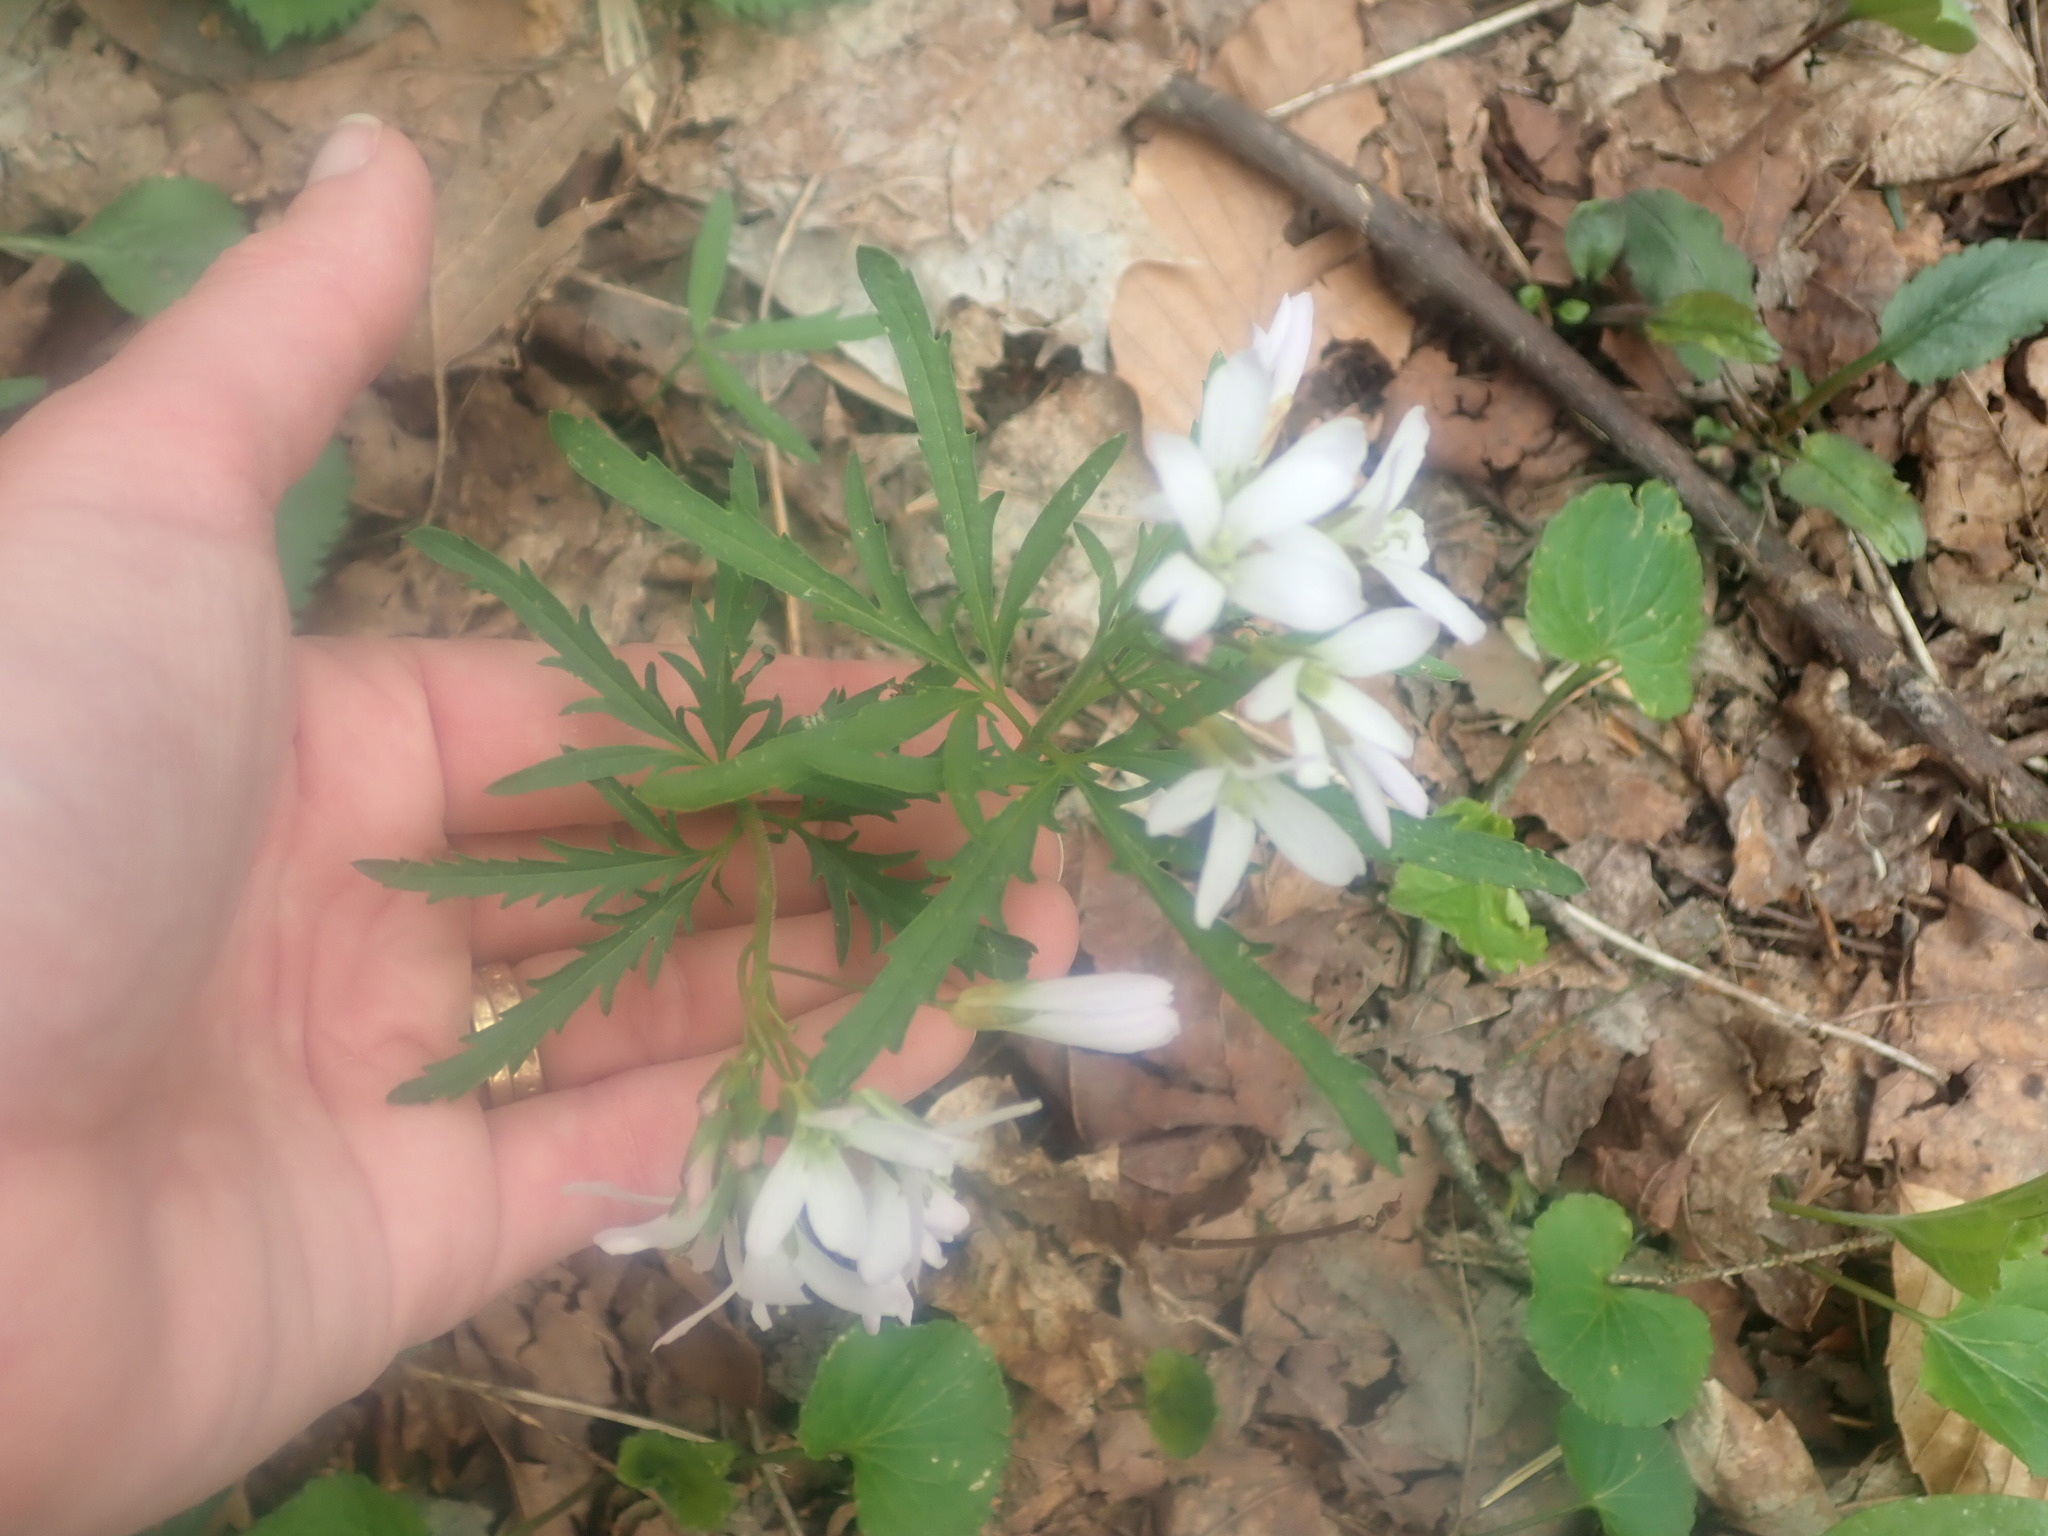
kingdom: Plantae
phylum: Tracheophyta
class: Magnoliopsida
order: Brassicales
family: Brassicaceae
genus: Cardamine
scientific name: Cardamine concatenata
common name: Cut-leaf toothcup
